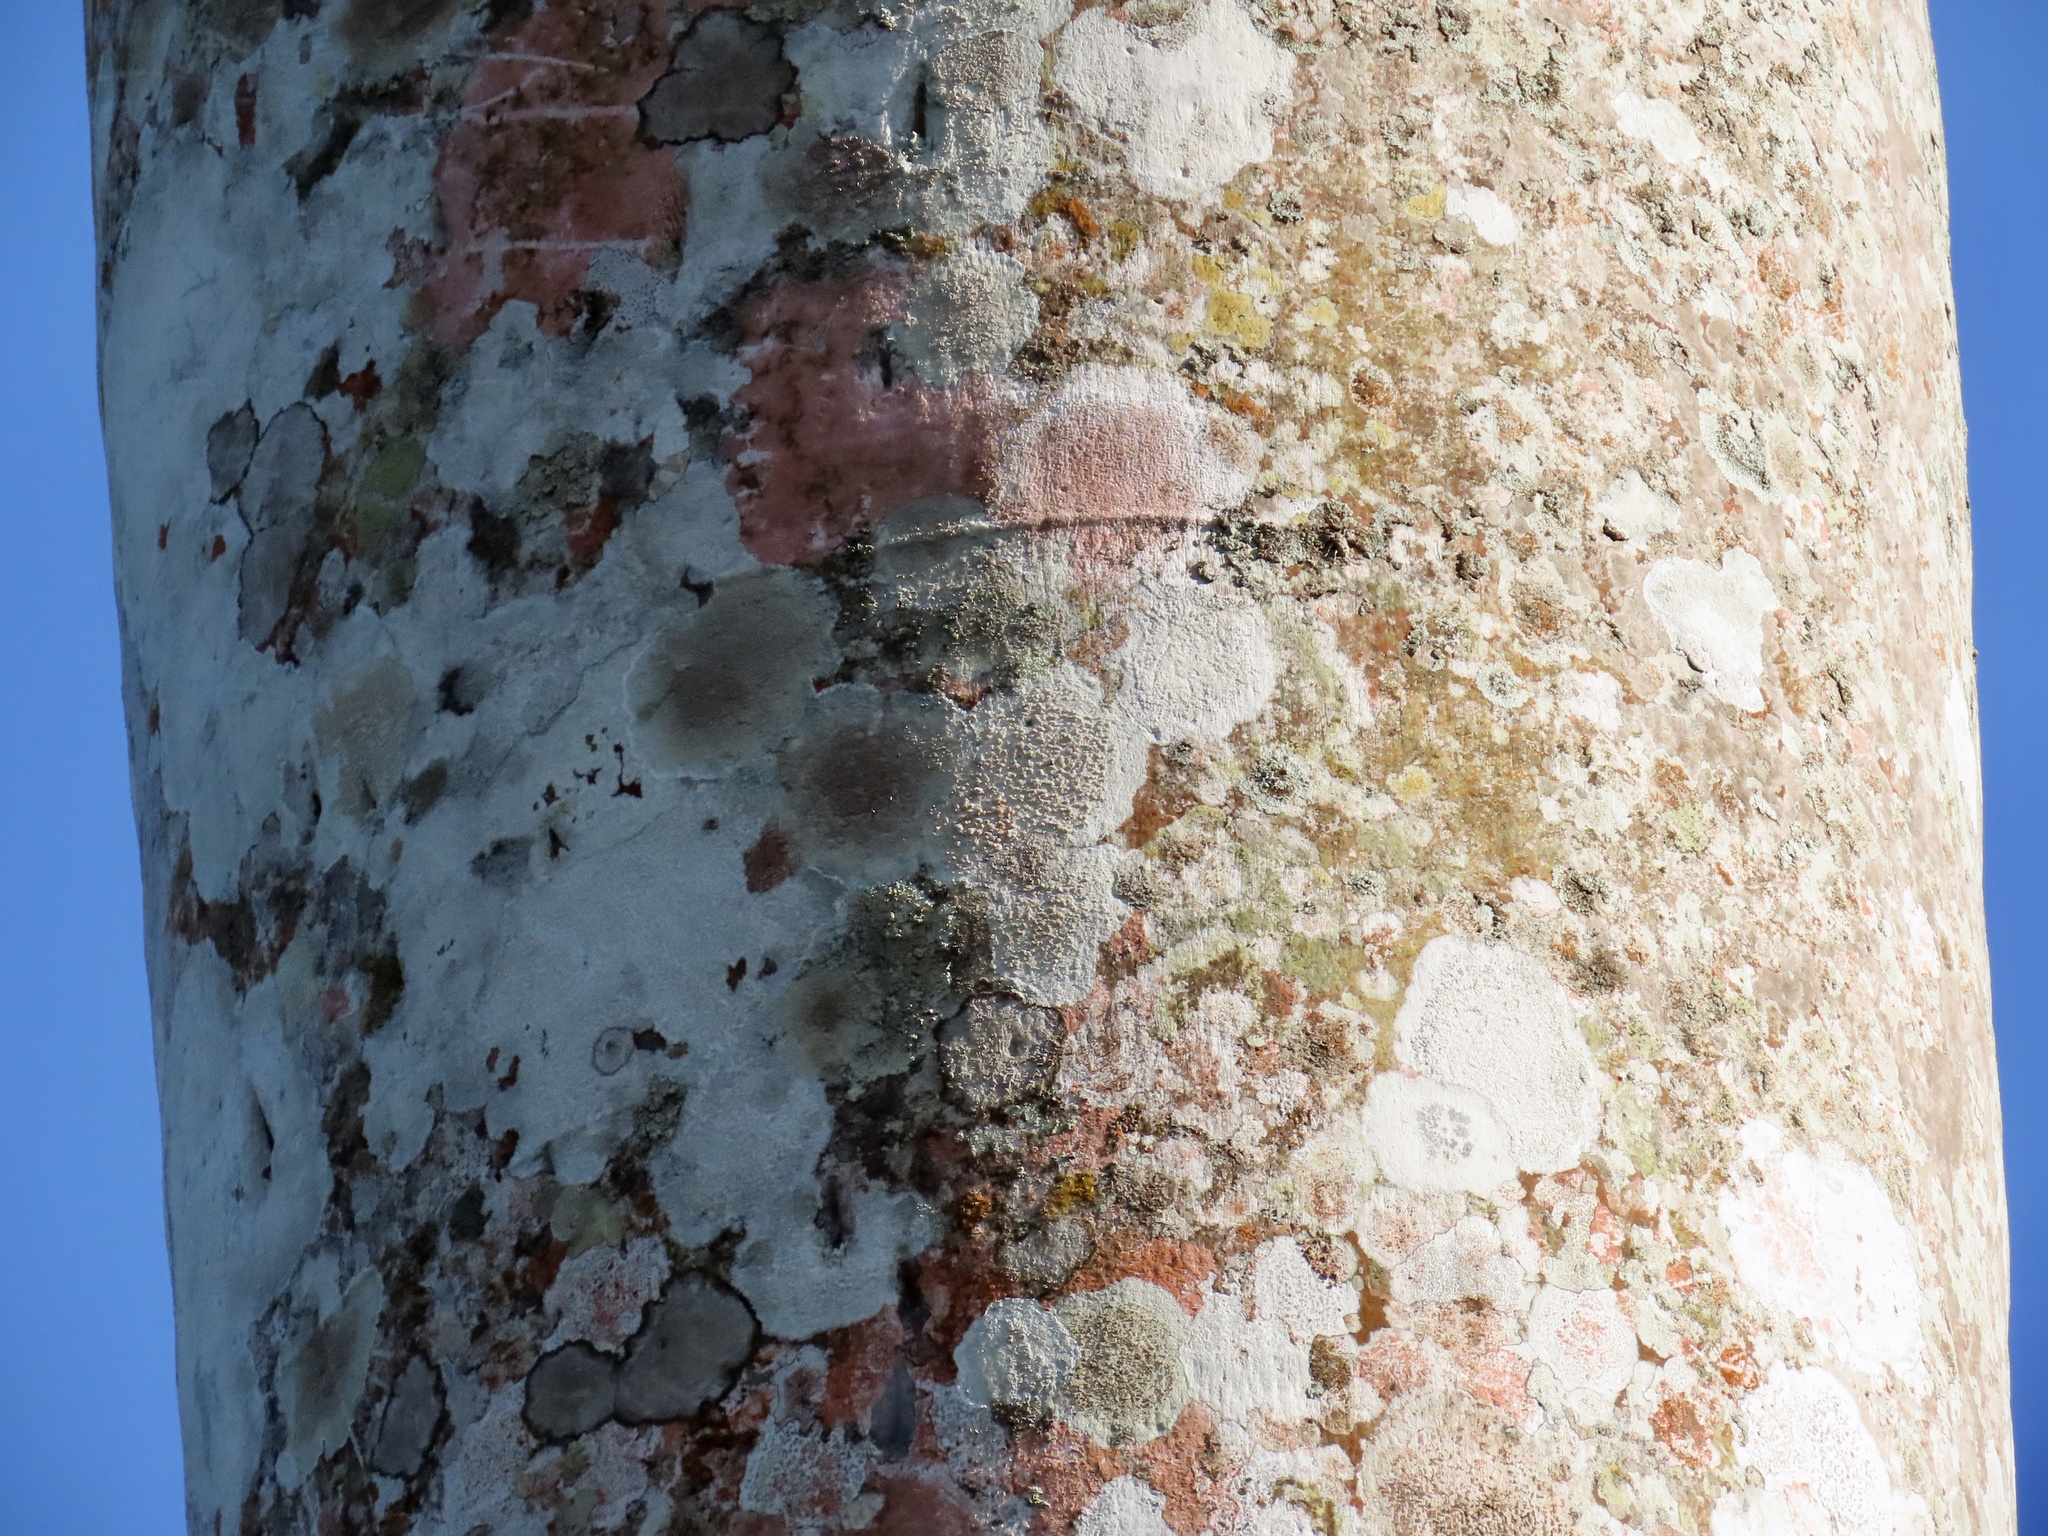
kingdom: Plantae
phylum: Tracheophyta
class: Liliopsida
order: Arecales
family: Arecaceae
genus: Roystonea
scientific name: Roystonea regia
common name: Florida royal palm
